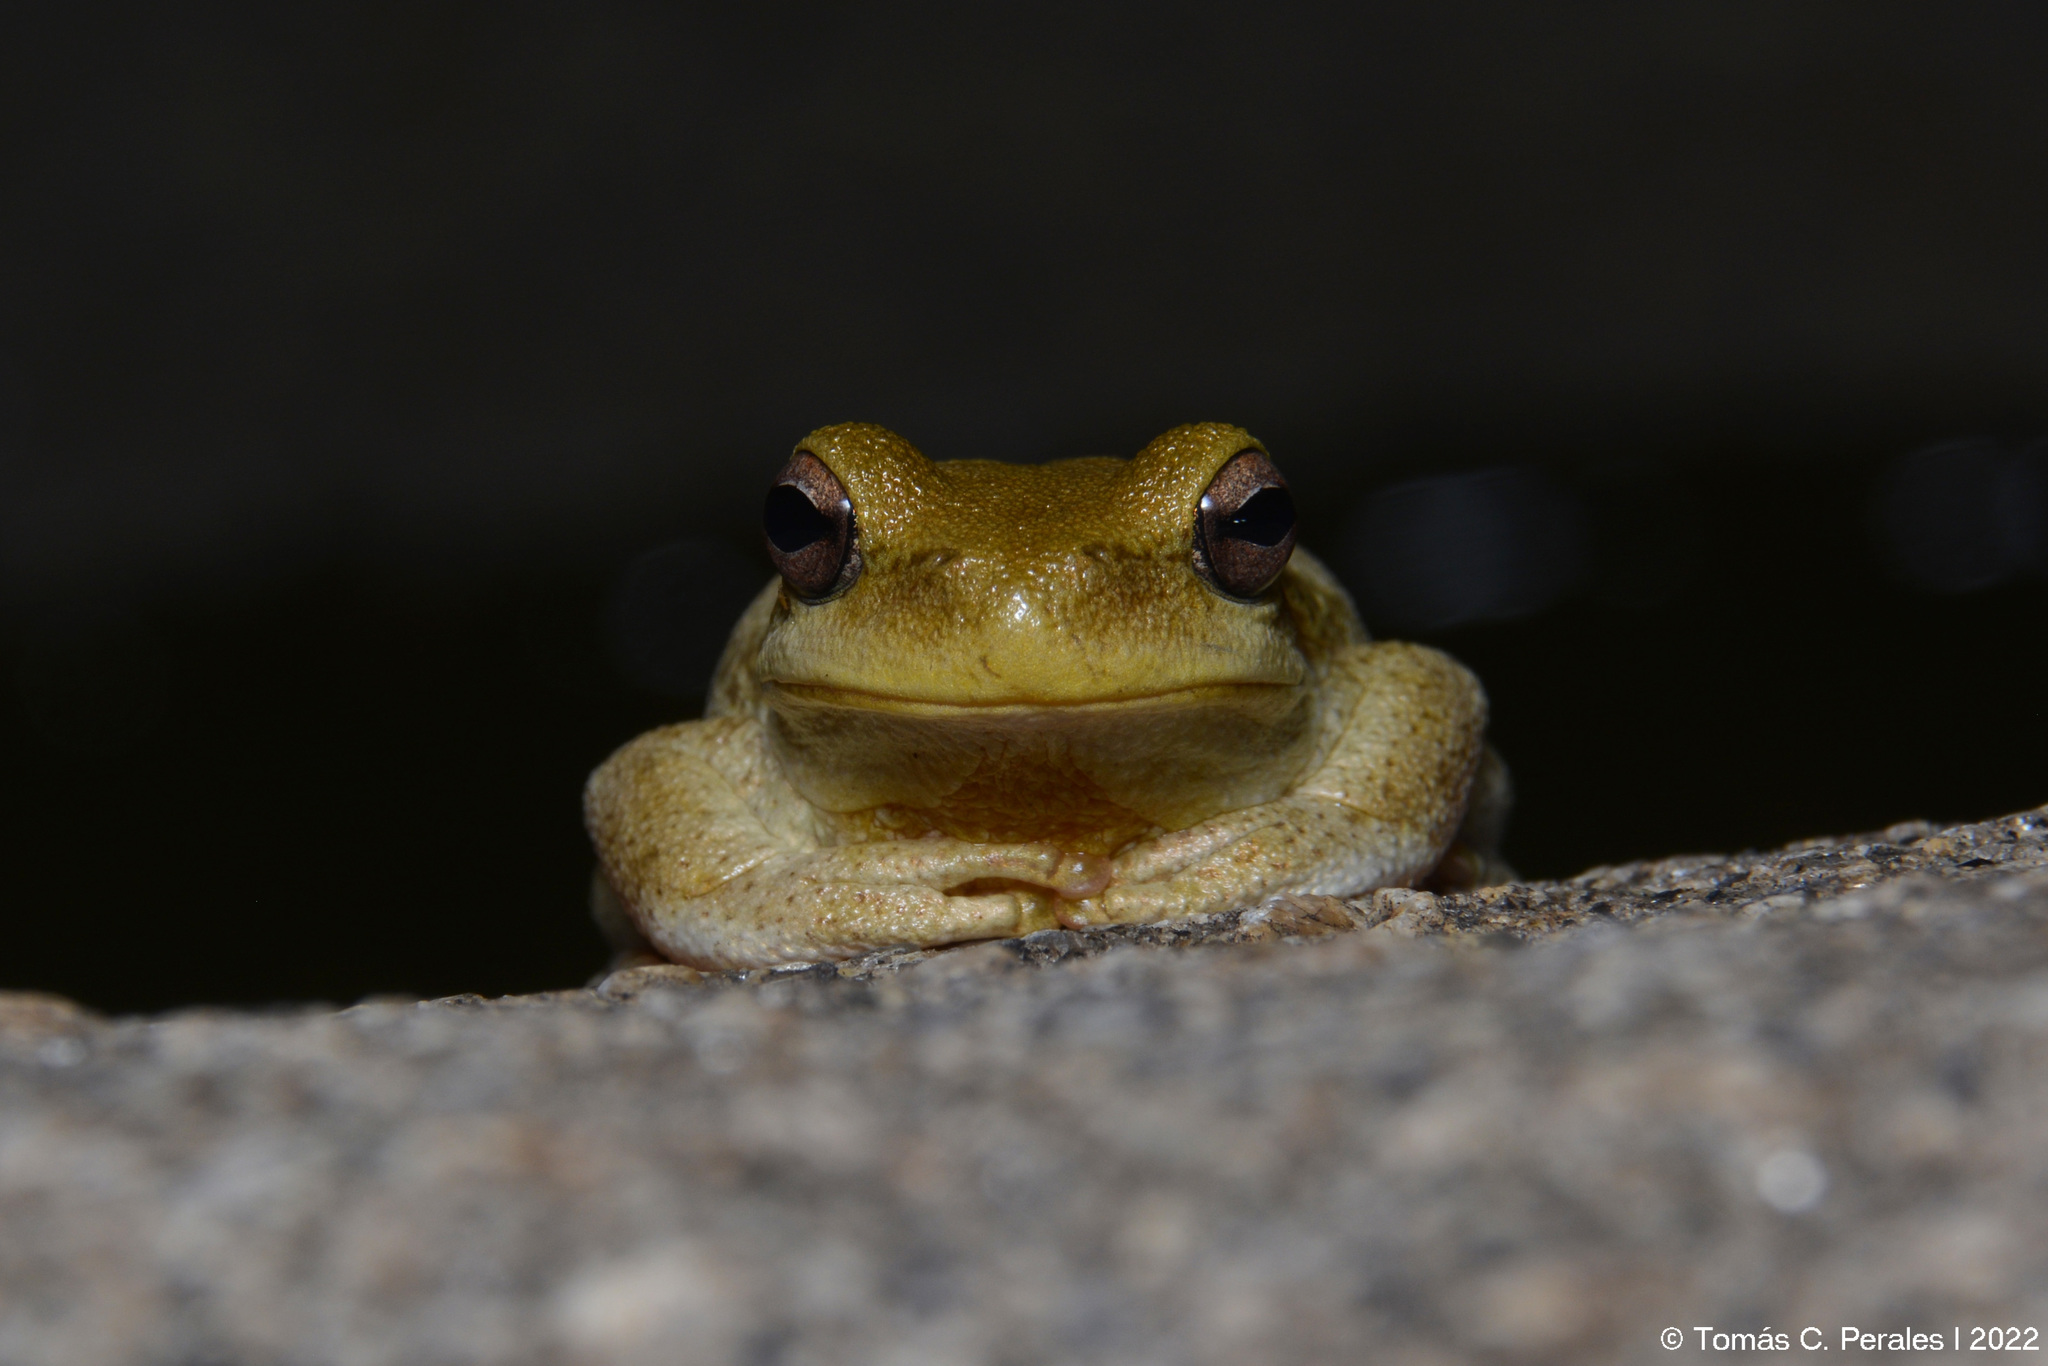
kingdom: Animalia
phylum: Chordata
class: Amphibia
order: Anura
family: Hylidae
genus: Boana
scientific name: Boana cordobae
